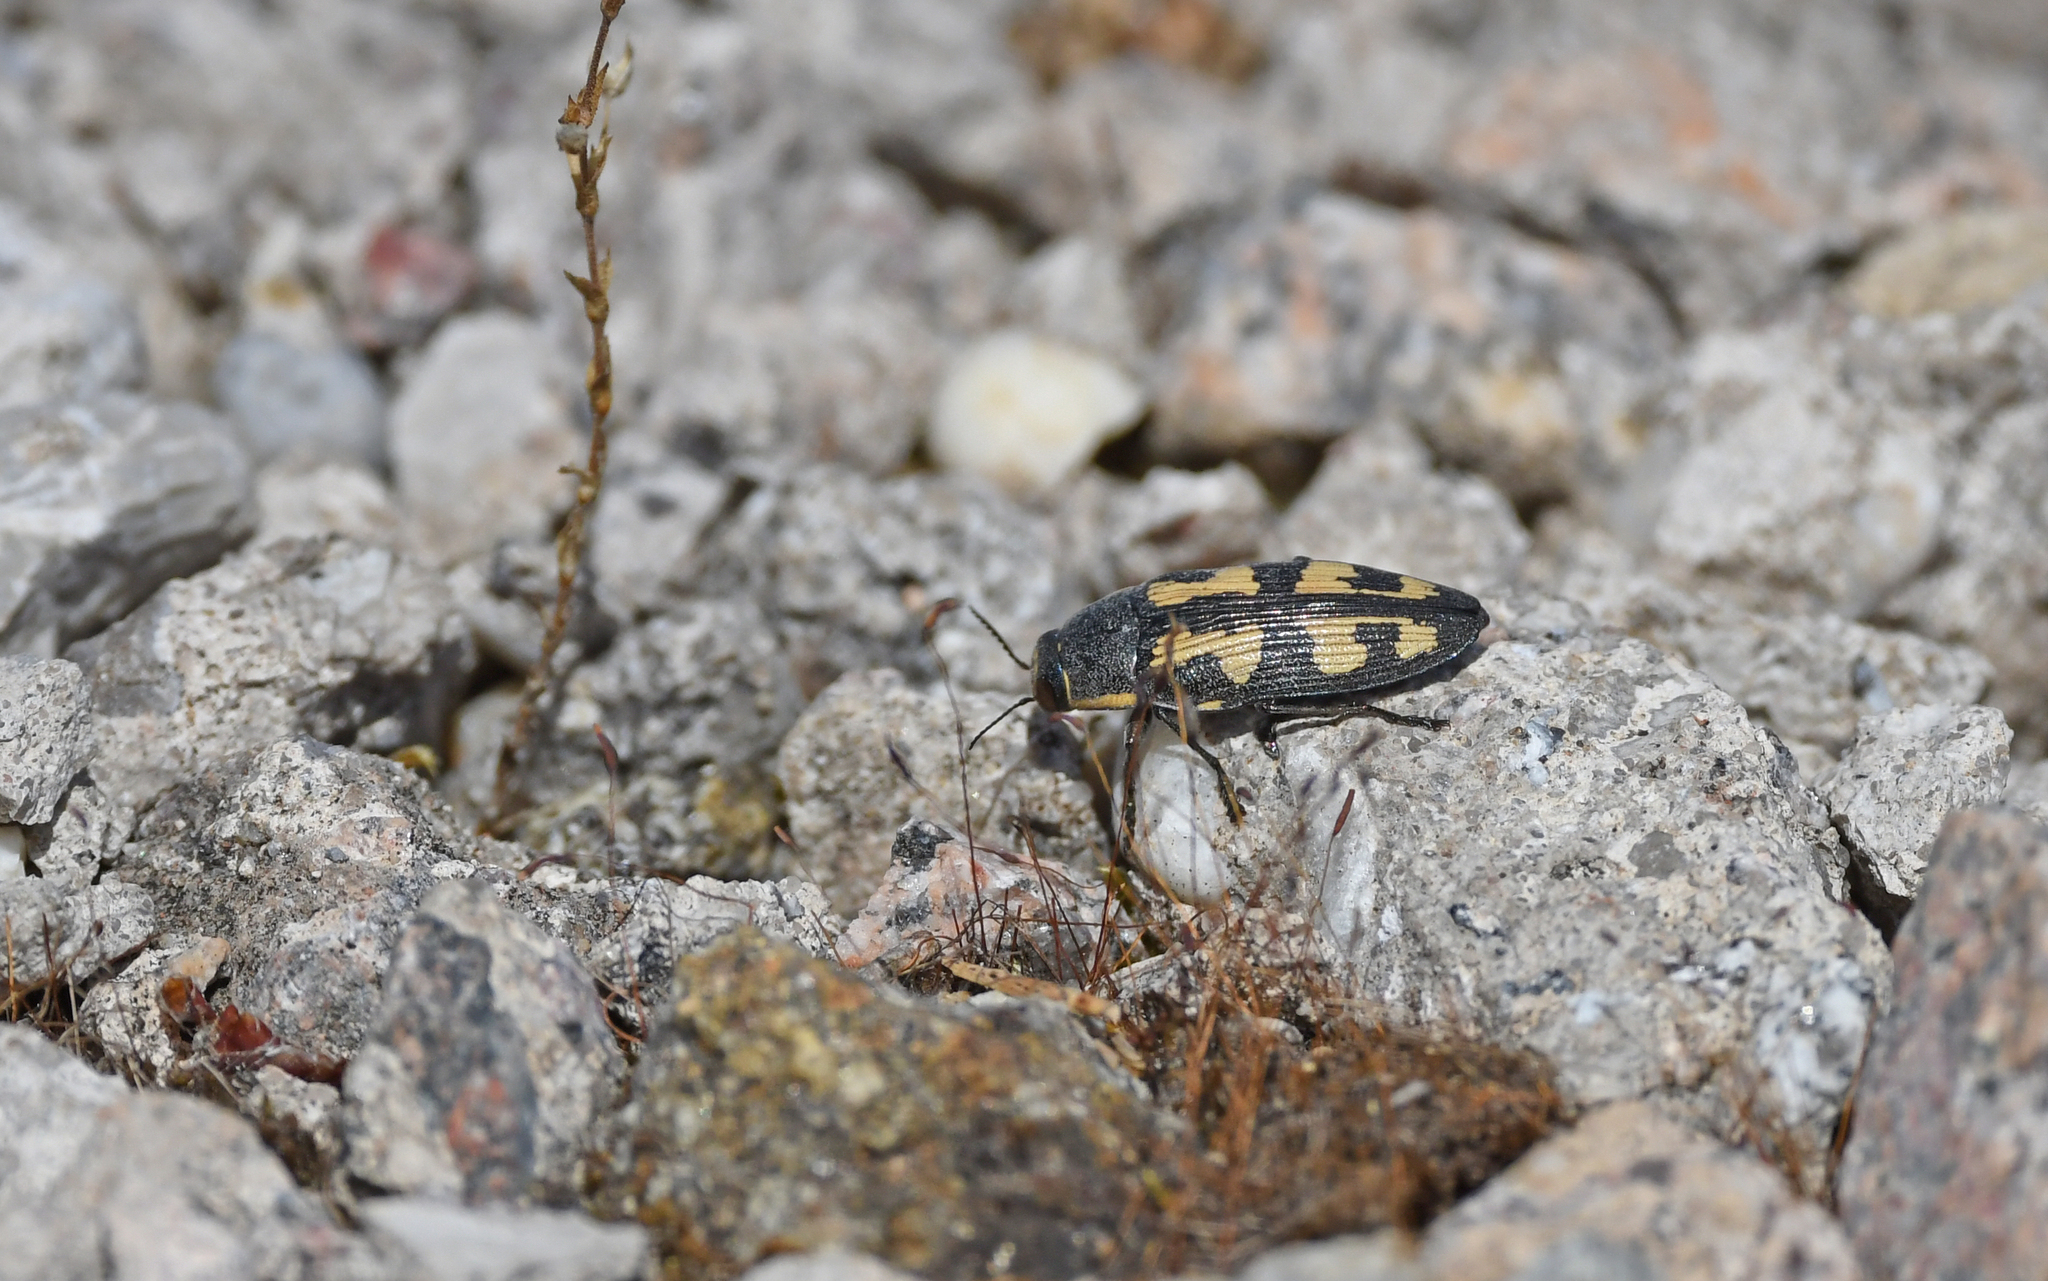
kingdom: Animalia
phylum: Arthropoda
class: Insecta
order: Coleoptera
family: Buprestidae
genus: Buprestis
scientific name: Buprestis novemmaculata
